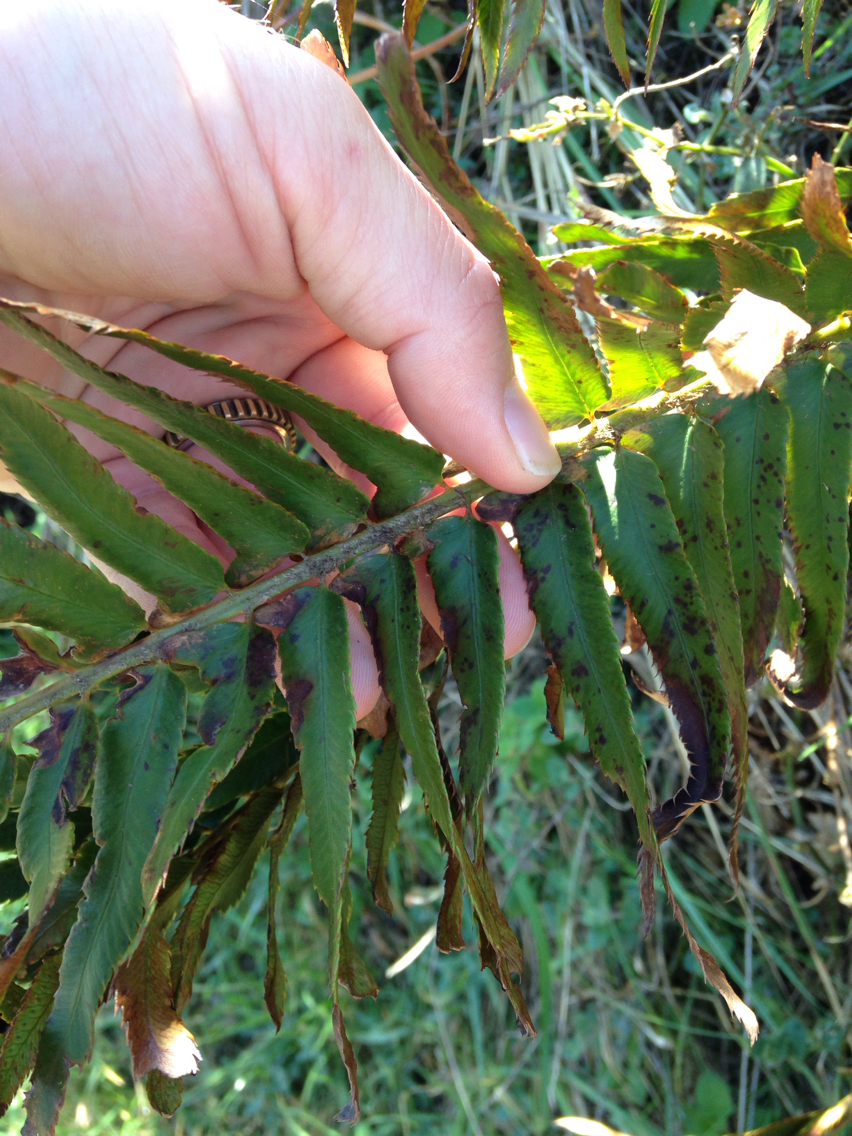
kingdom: Plantae
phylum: Tracheophyta
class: Polypodiopsida
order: Polypodiales
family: Dryopteridaceae
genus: Polystichum
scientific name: Polystichum munitum
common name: Western sword-fern
